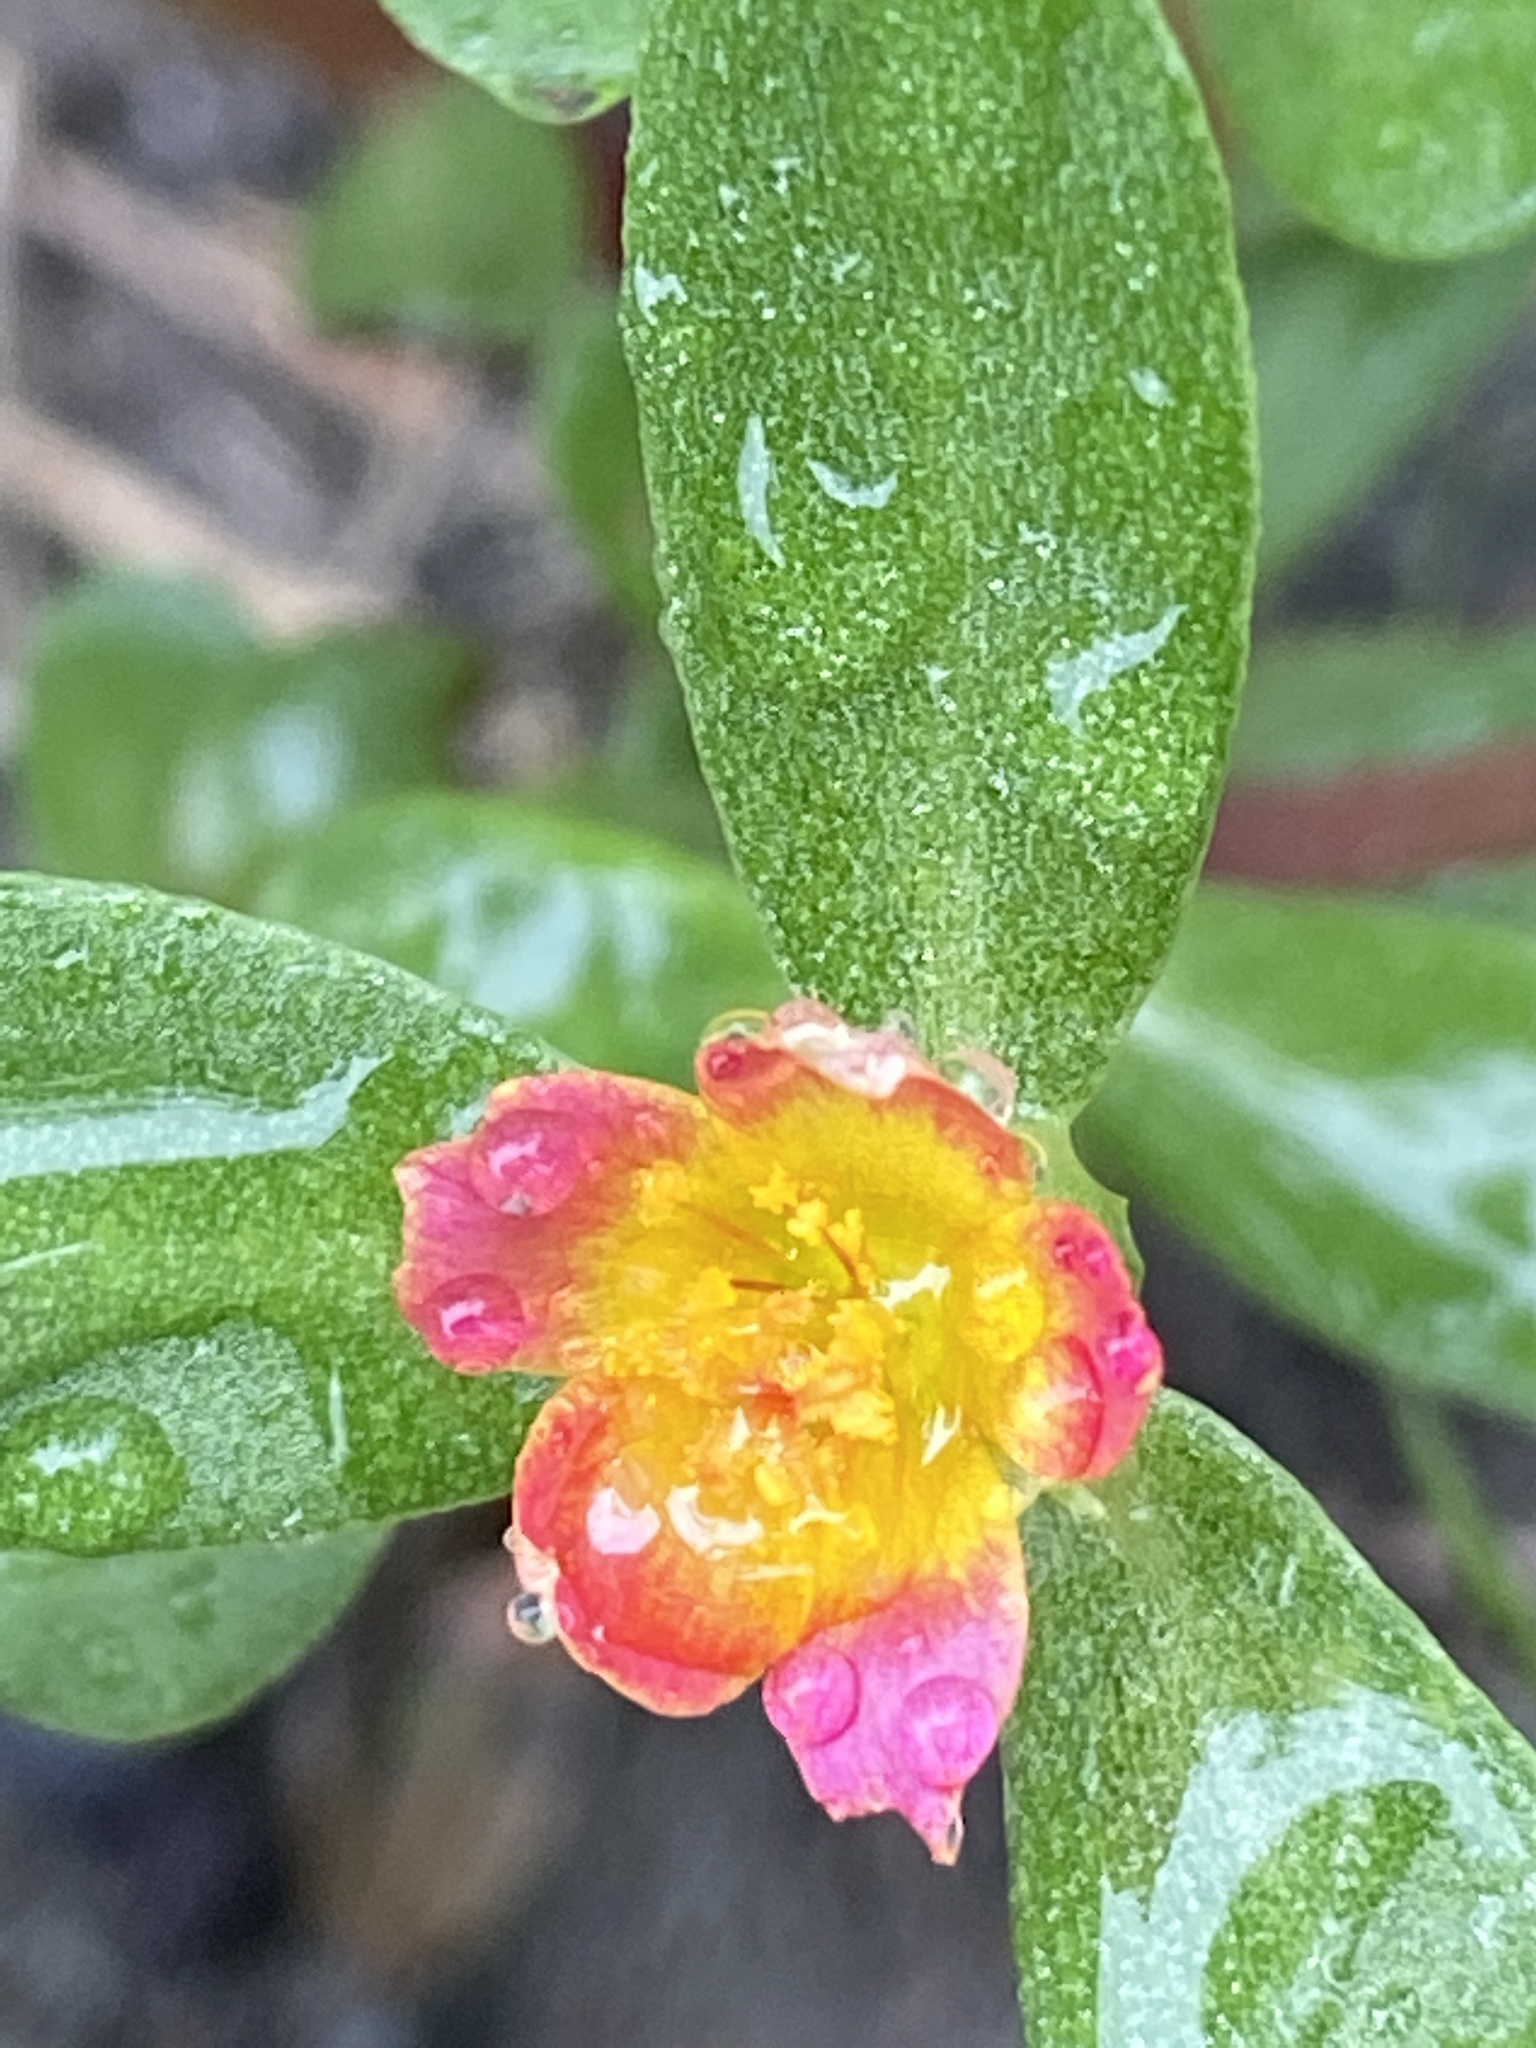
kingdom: Plantae
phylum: Tracheophyta
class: Magnoliopsida
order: Caryophyllales
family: Portulacaceae
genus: Portulaca
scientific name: Portulaca umbraticola
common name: Wingpod purslane
